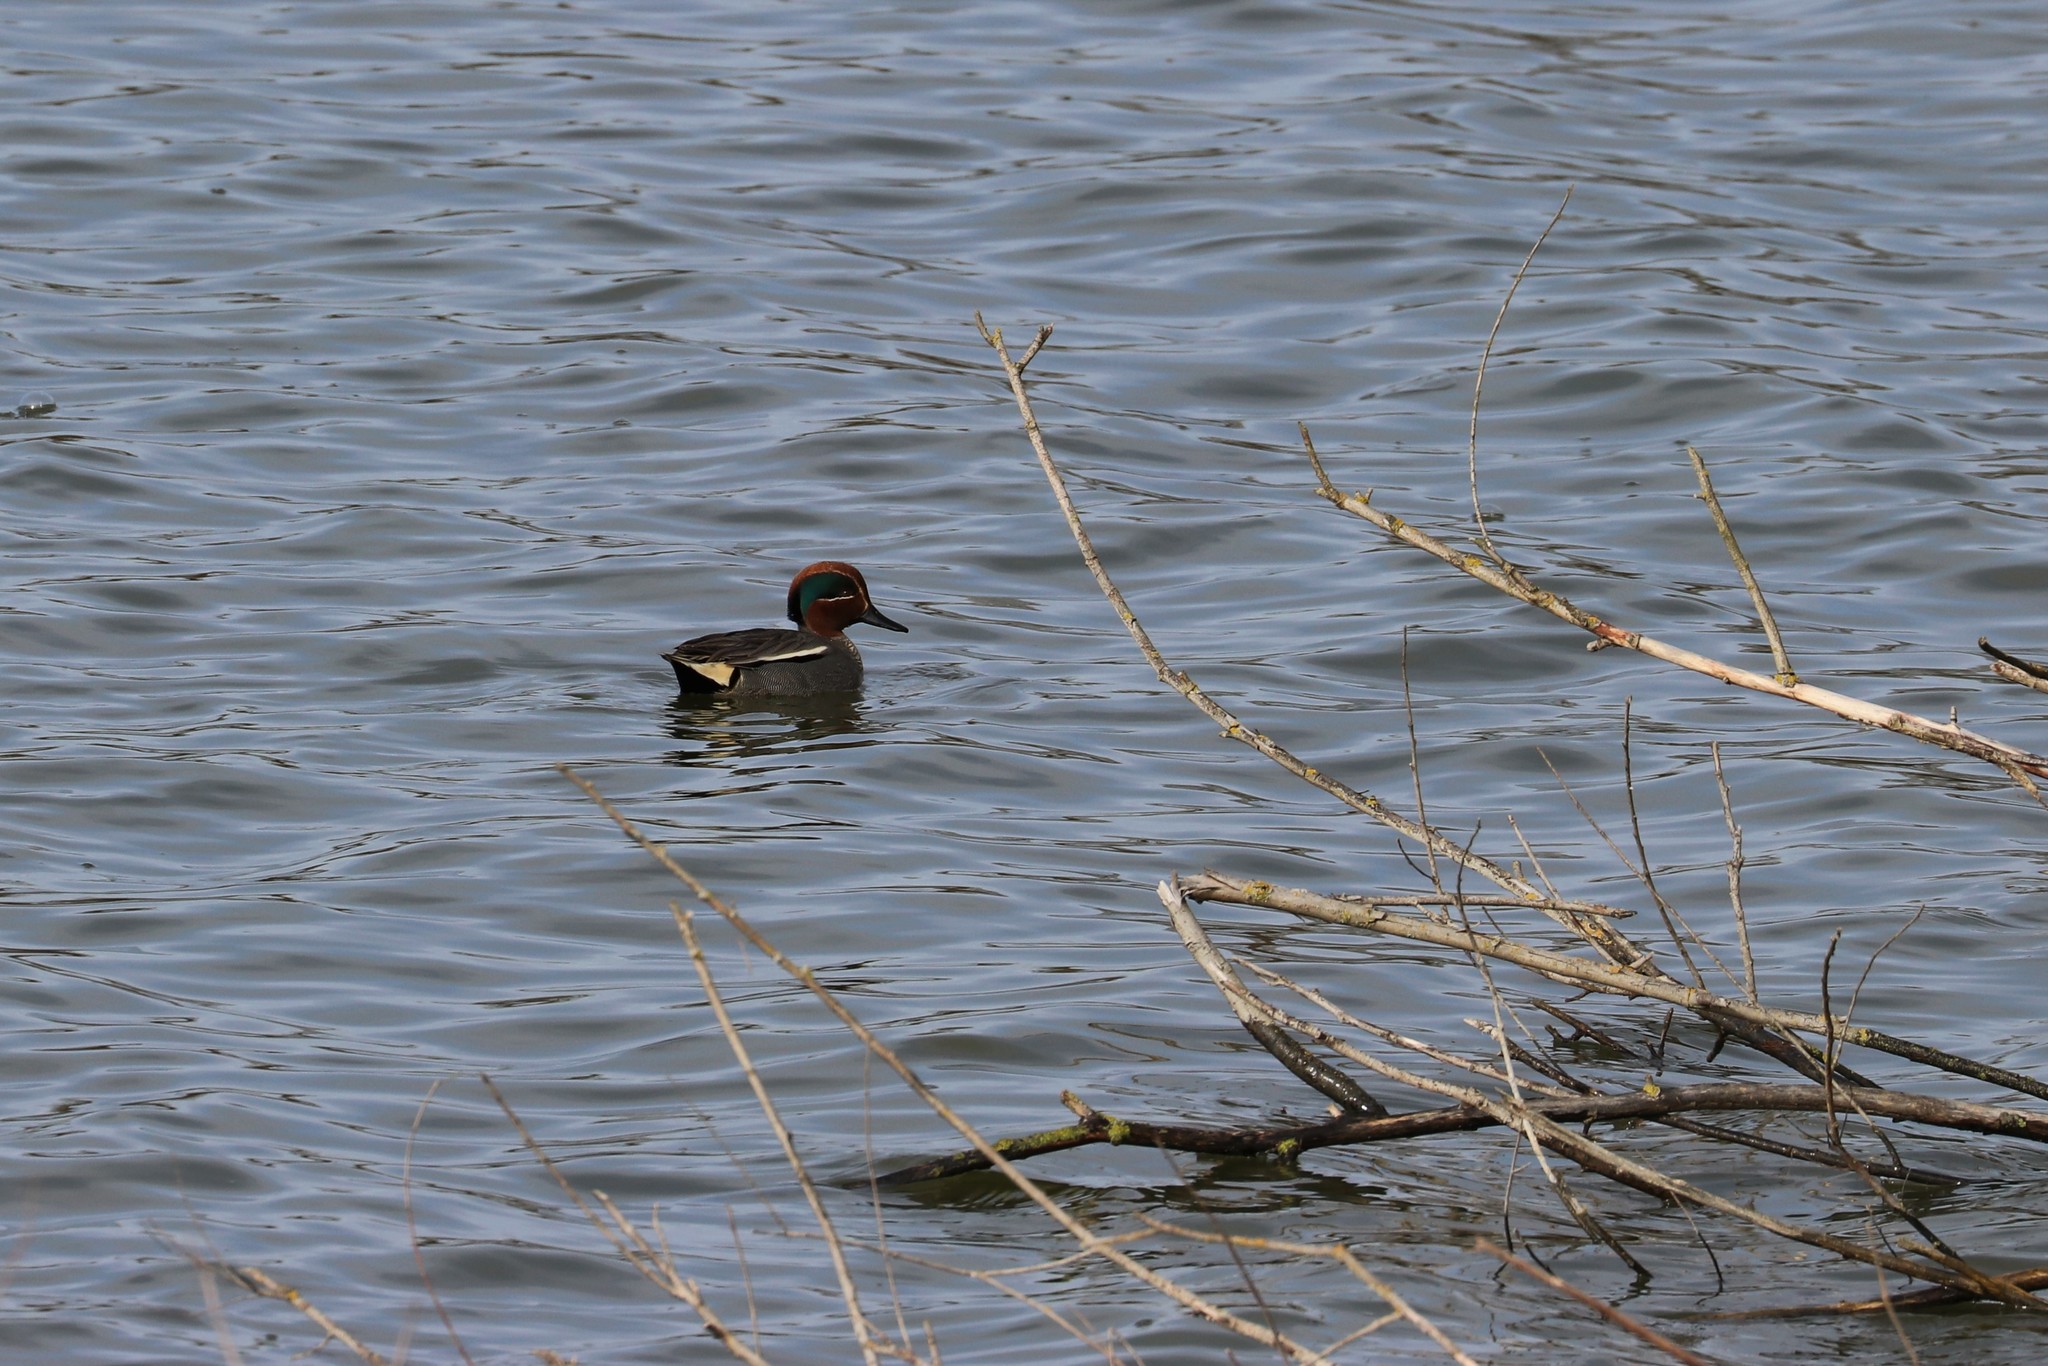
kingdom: Animalia
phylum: Chordata
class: Aves
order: Anseriformes
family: Anatidae
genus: Anas
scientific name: Anas crecca
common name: Eurasian teal
